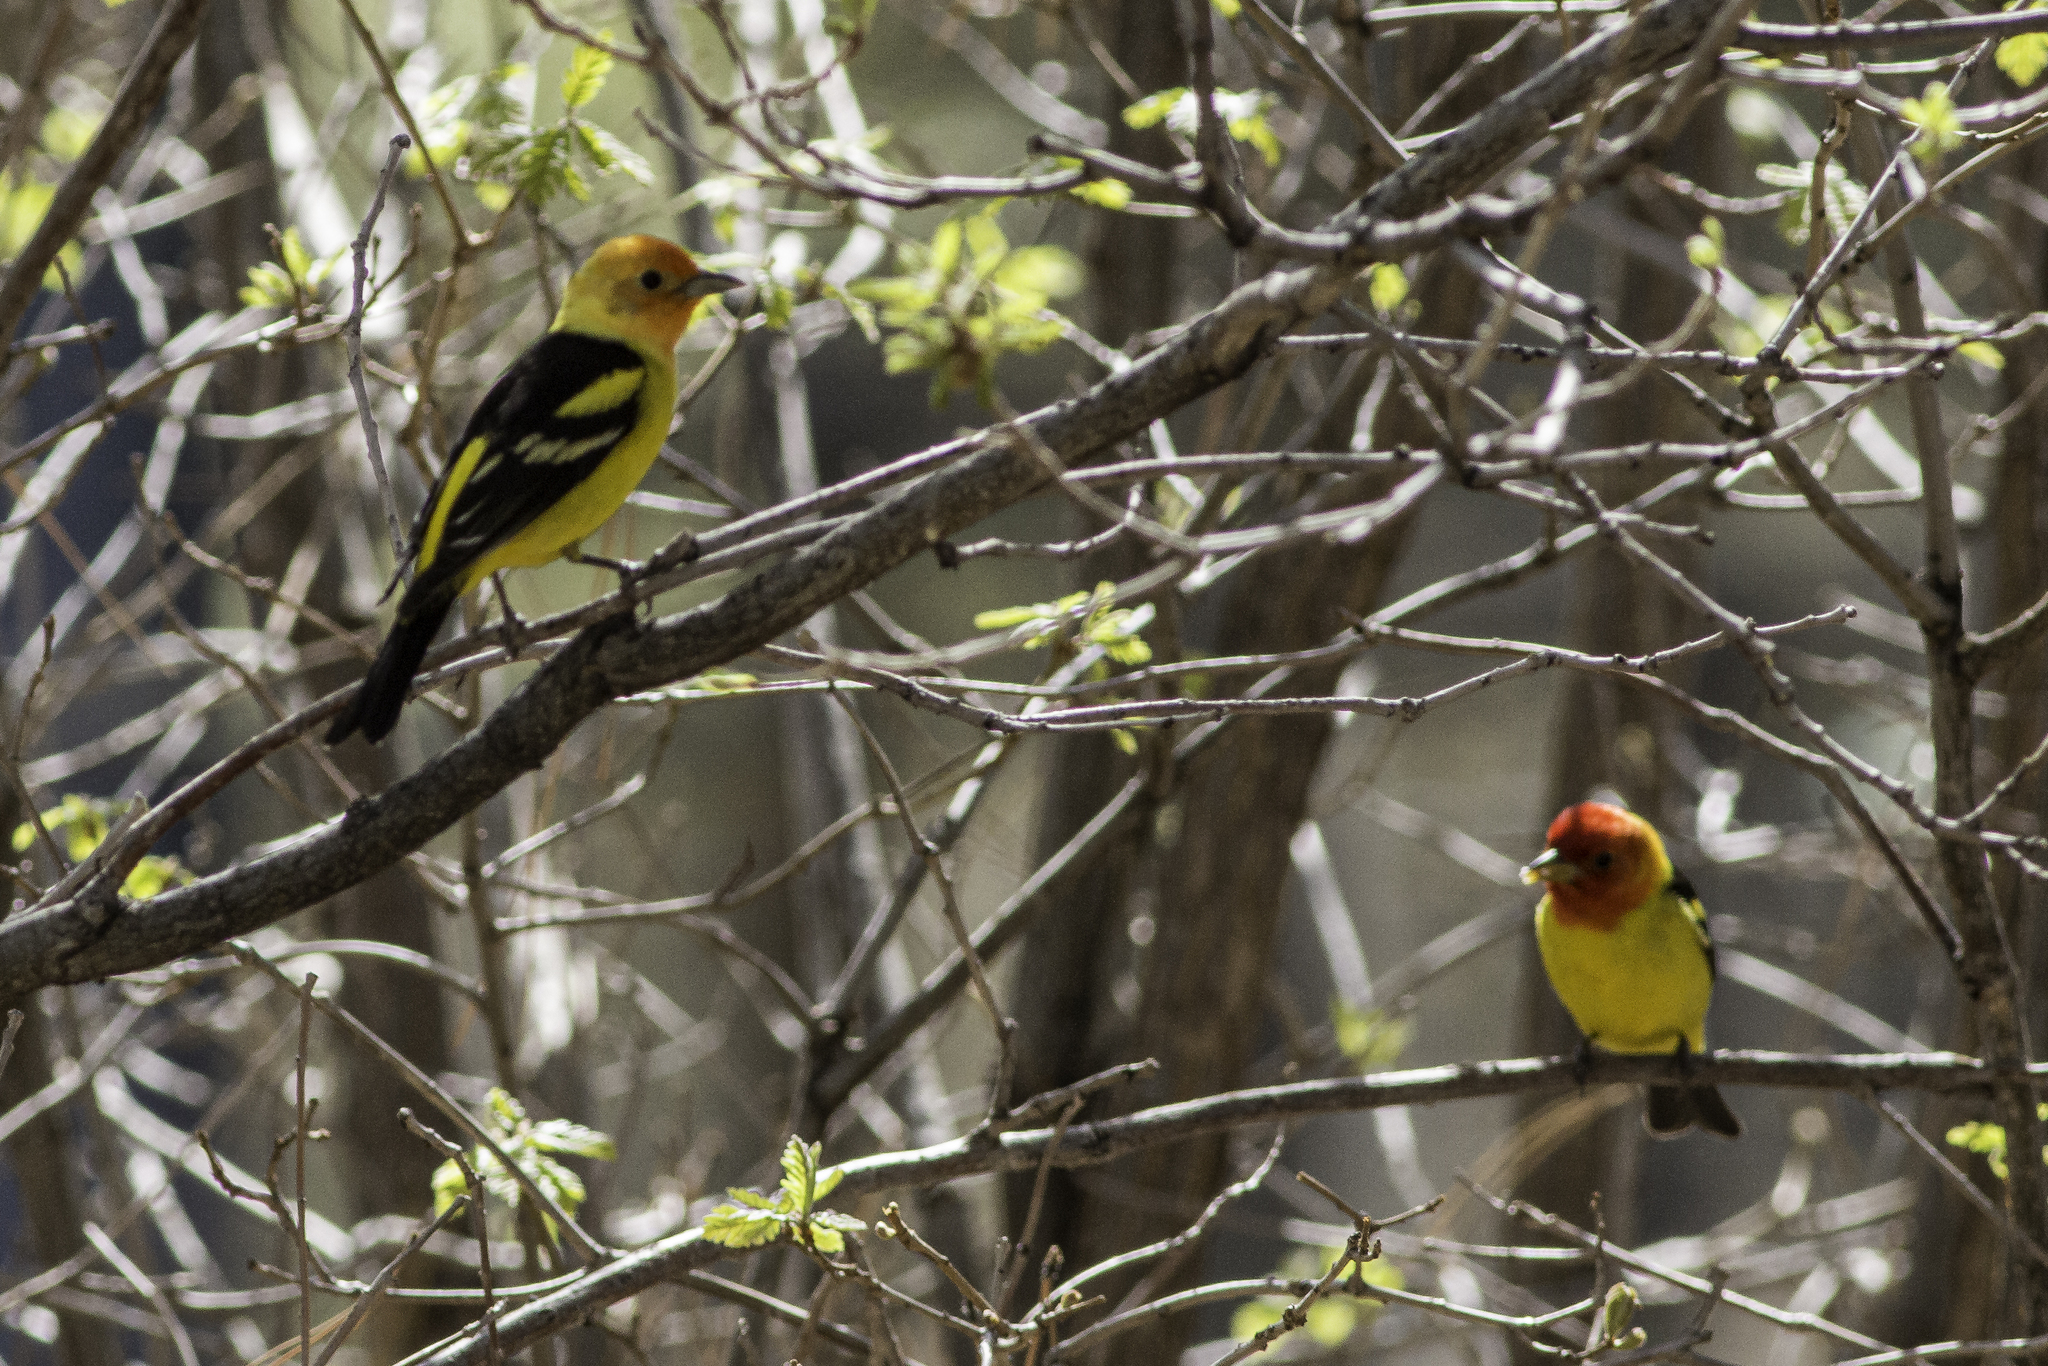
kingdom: Animalia
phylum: Chordata
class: Aves
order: Passeriformes
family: Cardinalidae
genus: Piranga
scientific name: Piranga ludoviciana
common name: Western tanager
